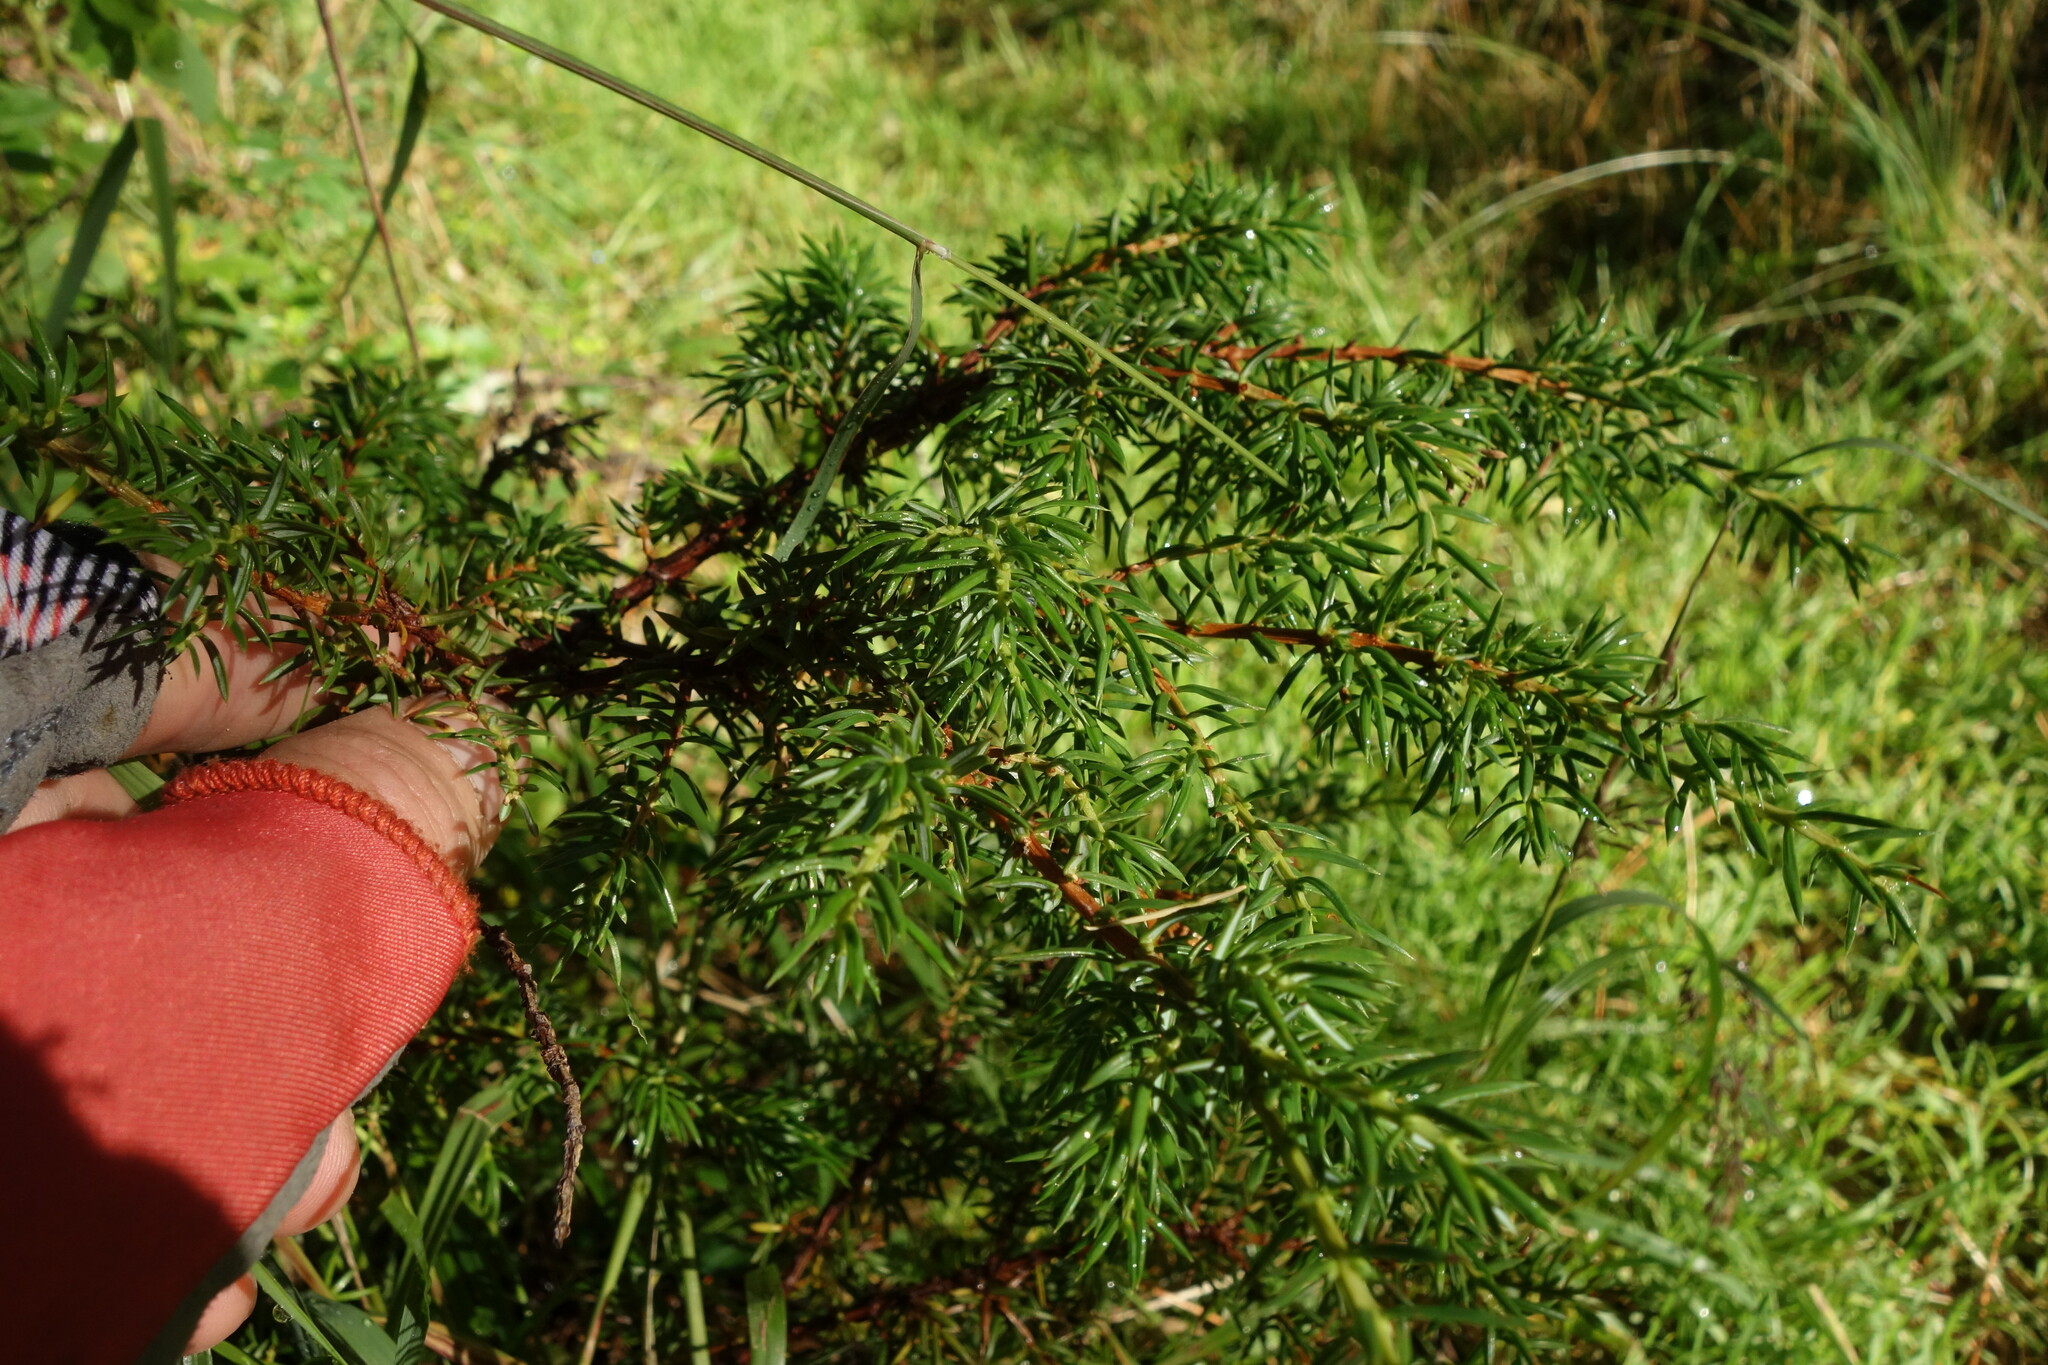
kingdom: Plantae
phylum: Tracheophyta
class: Pinopsida
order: Pinales
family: Cupressaceae
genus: Juniperus
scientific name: Juniperus communis
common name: Common juniper
